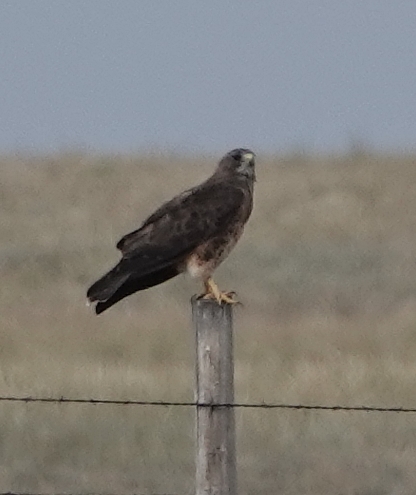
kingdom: Animalia
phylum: Chordata
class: Aves
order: Accipitriformes
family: Accipitridae
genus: Buteo
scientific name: Buteo swainsoni
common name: Swainson's hawk
